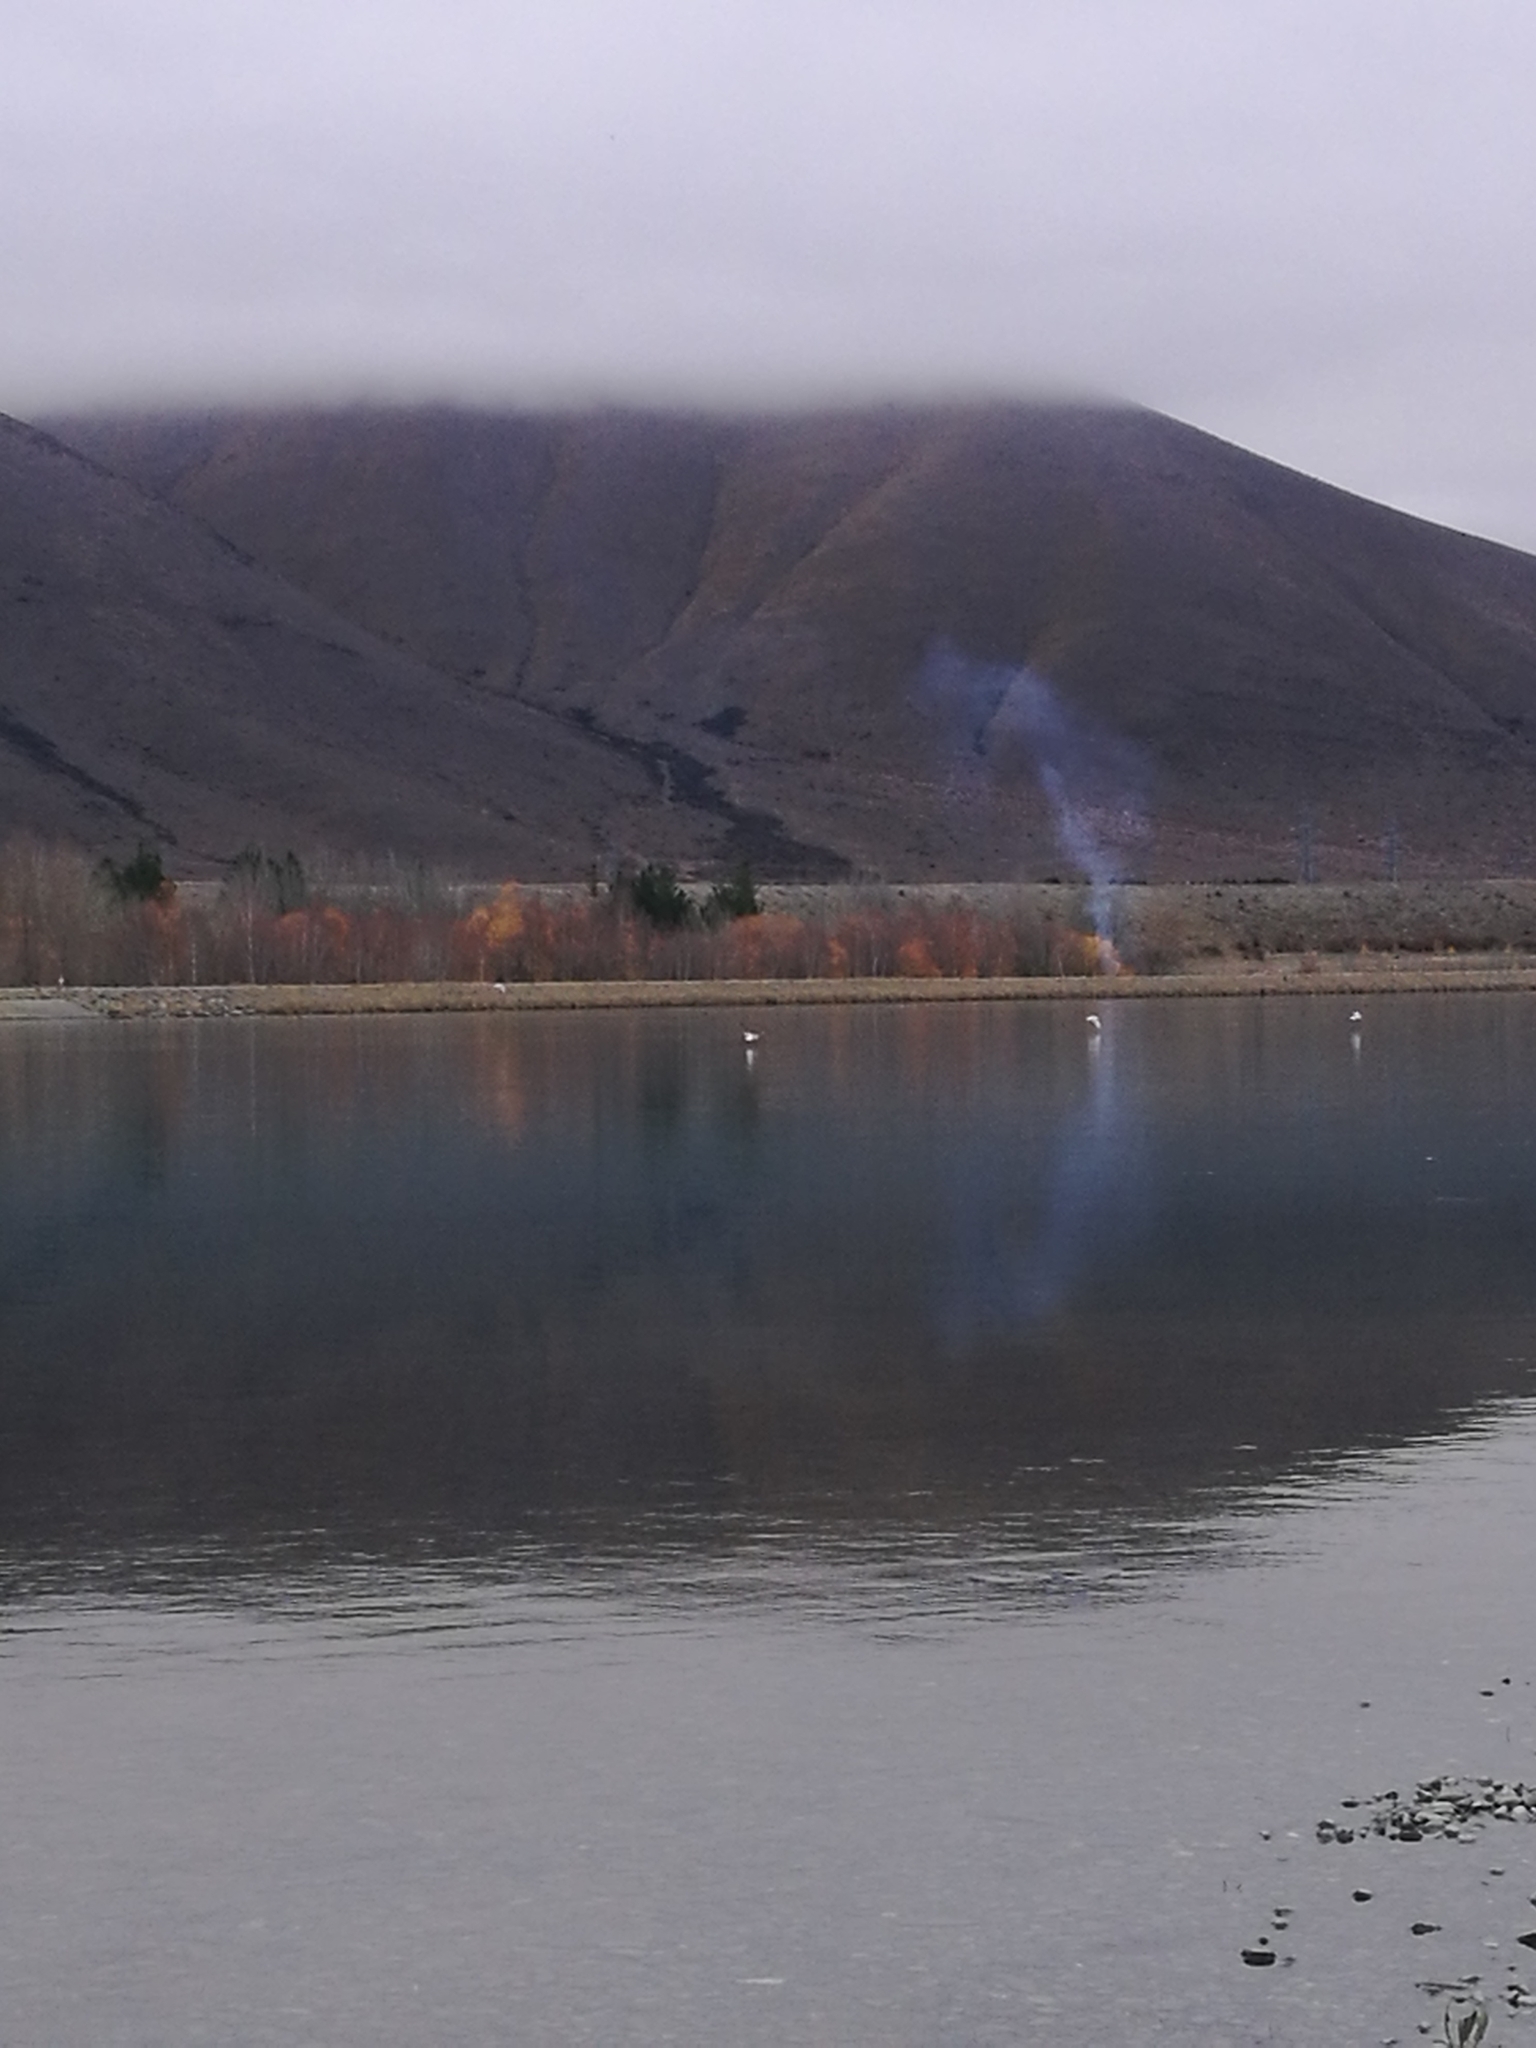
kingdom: Animalia
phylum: Chordata
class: Aves
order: Charadriiformes
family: Laridae
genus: Chroicocephalus
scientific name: Chroicocephalus
